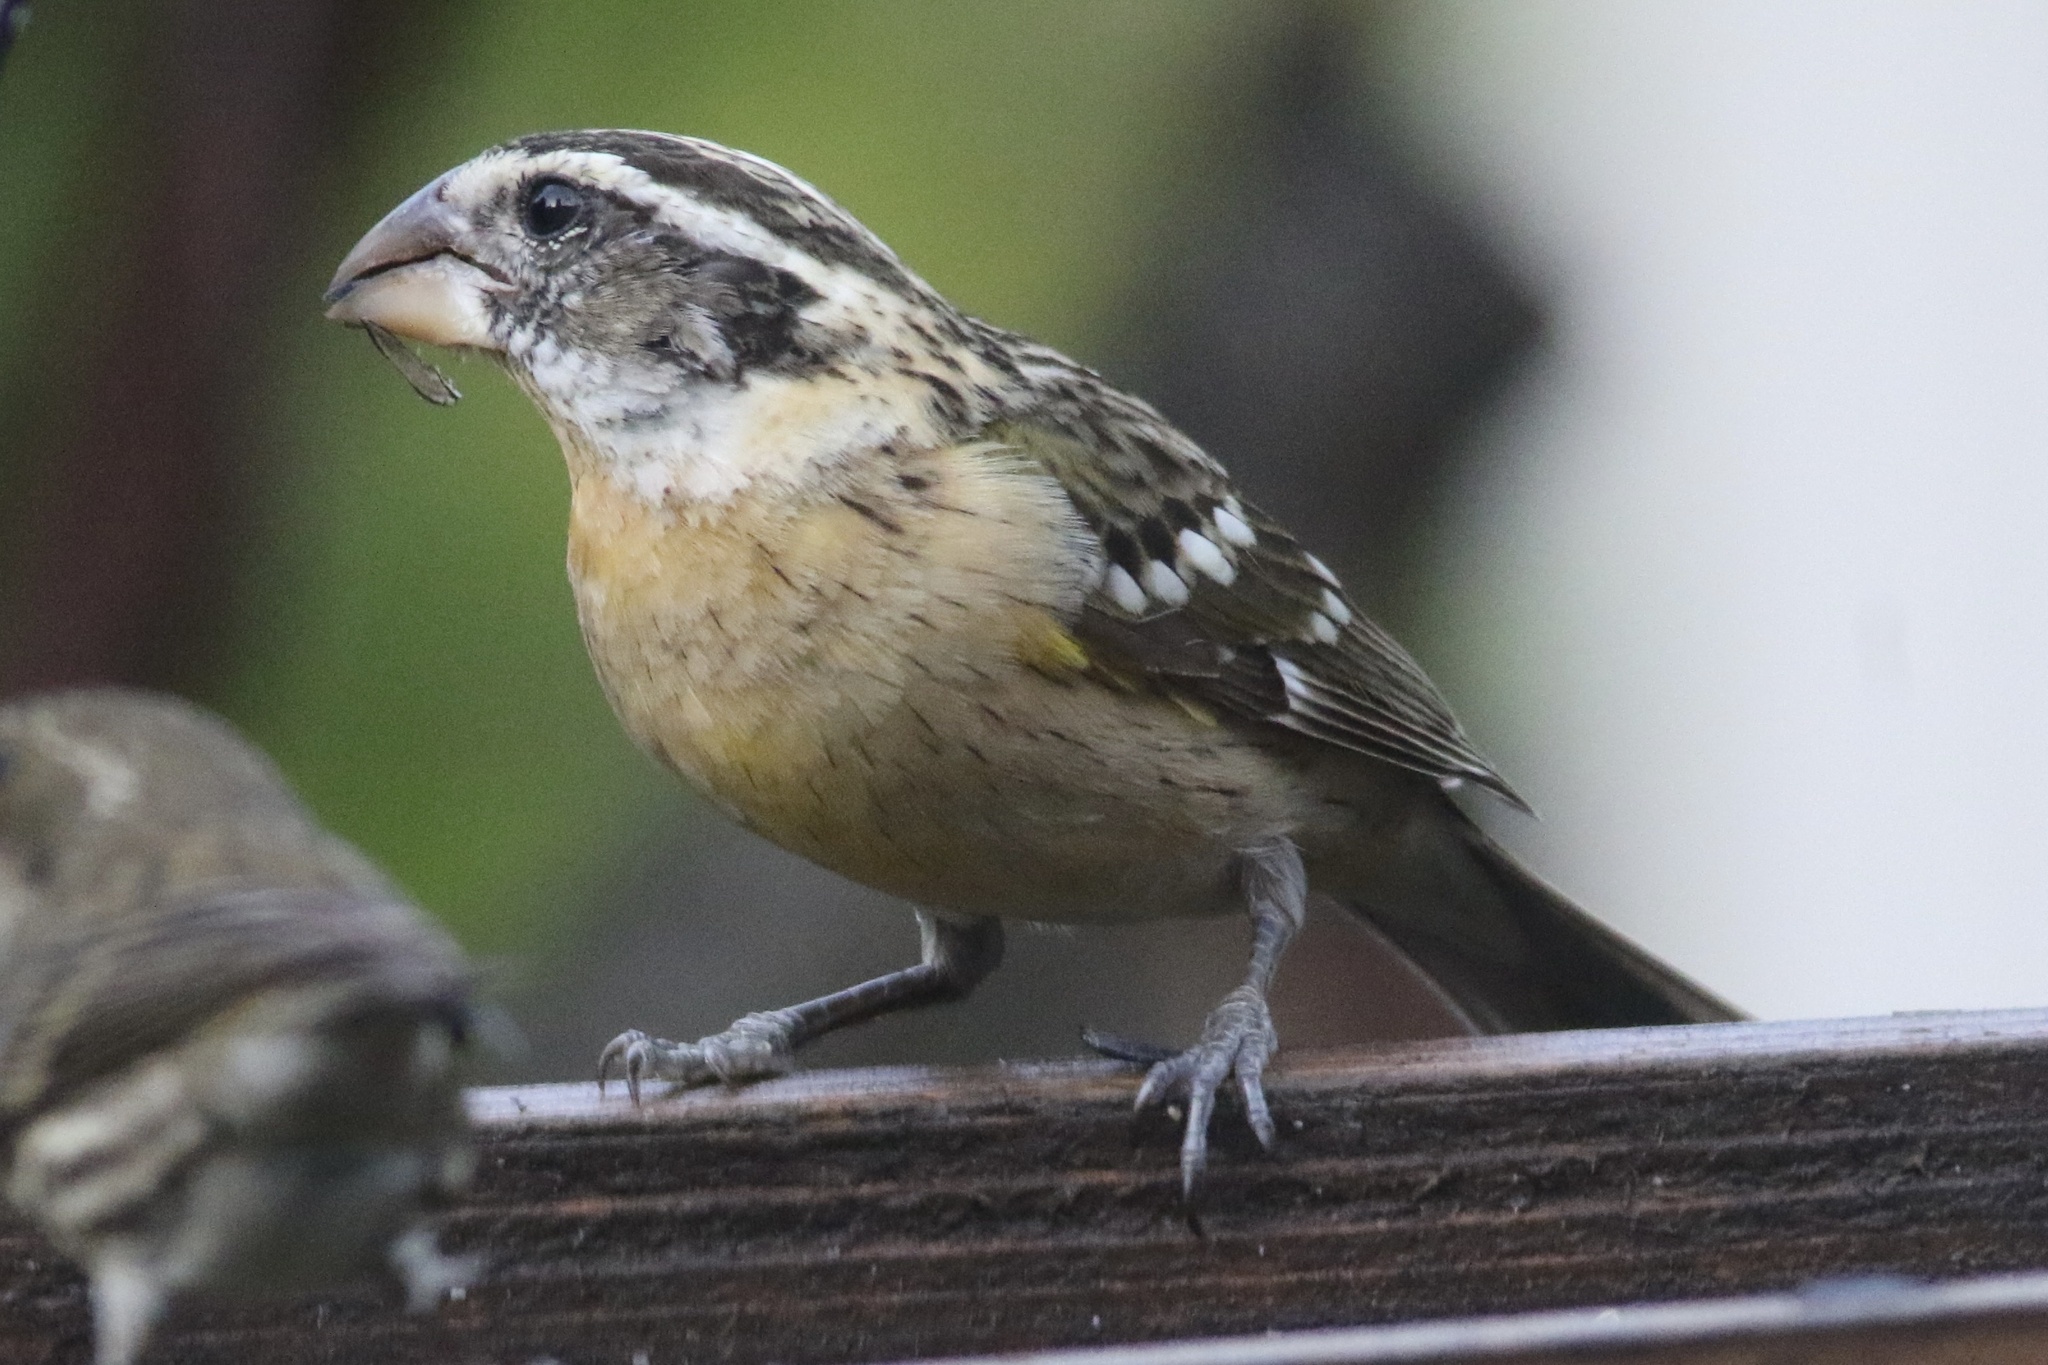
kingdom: Animalia
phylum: Chordata
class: Aves
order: Passeriformes
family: Cardinalidae
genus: Pheucticus
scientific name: Pheucticus melanocephalus
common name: Black-headed grosbeak
